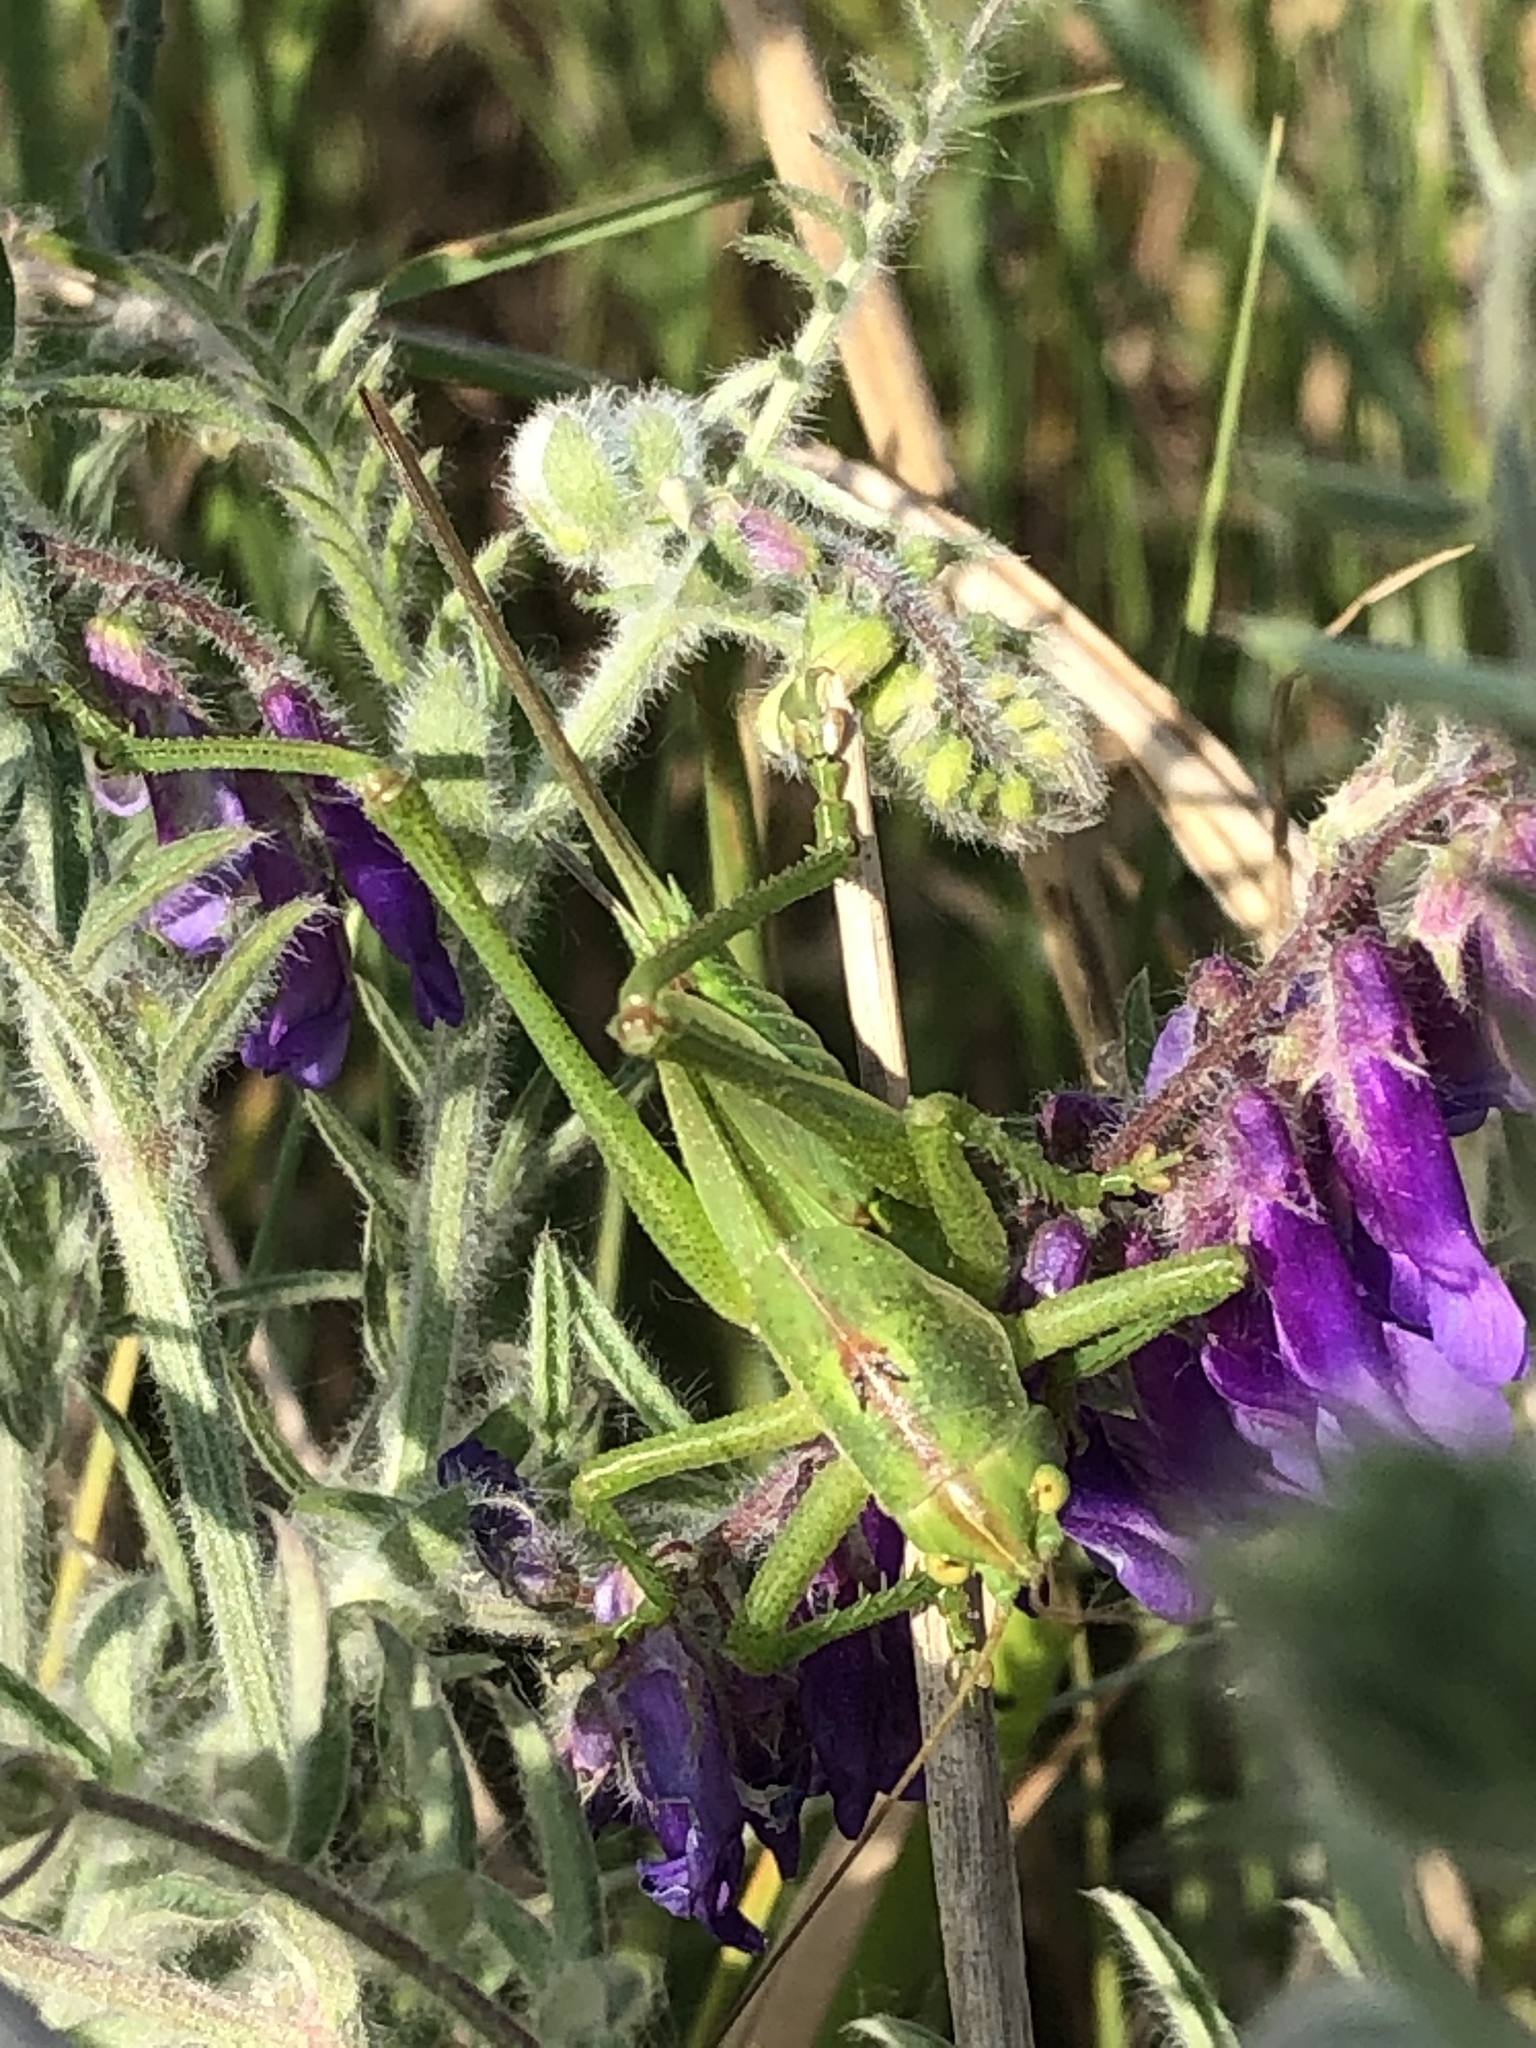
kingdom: Animalia
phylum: Arthropoda
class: Insecta
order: Orthoptera
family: Tettigoniidae
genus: Tettigonia
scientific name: Tettigonia viridissima
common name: Great green bush-cricket
